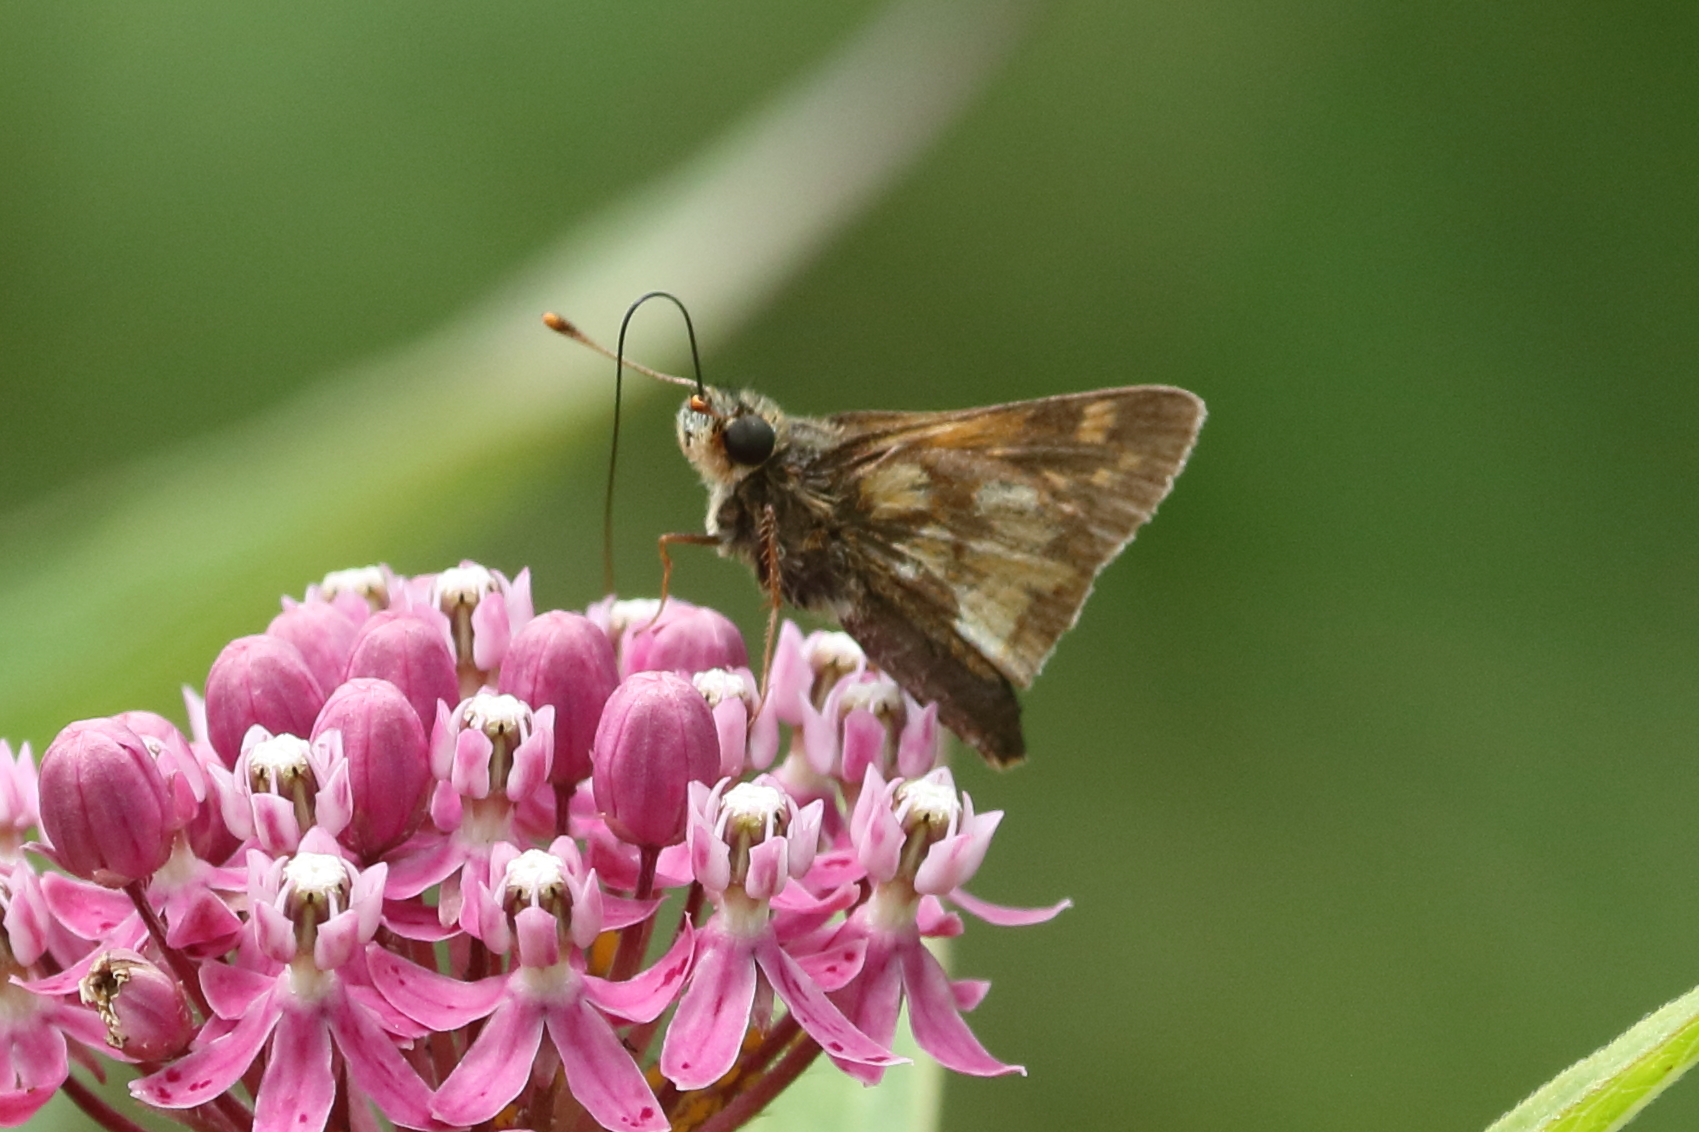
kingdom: Animalia
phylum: Arthropoda
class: Insecta
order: Lepidoptera
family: Hesperiidae
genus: Polites
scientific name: Polites coras
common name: Peck's skipper
